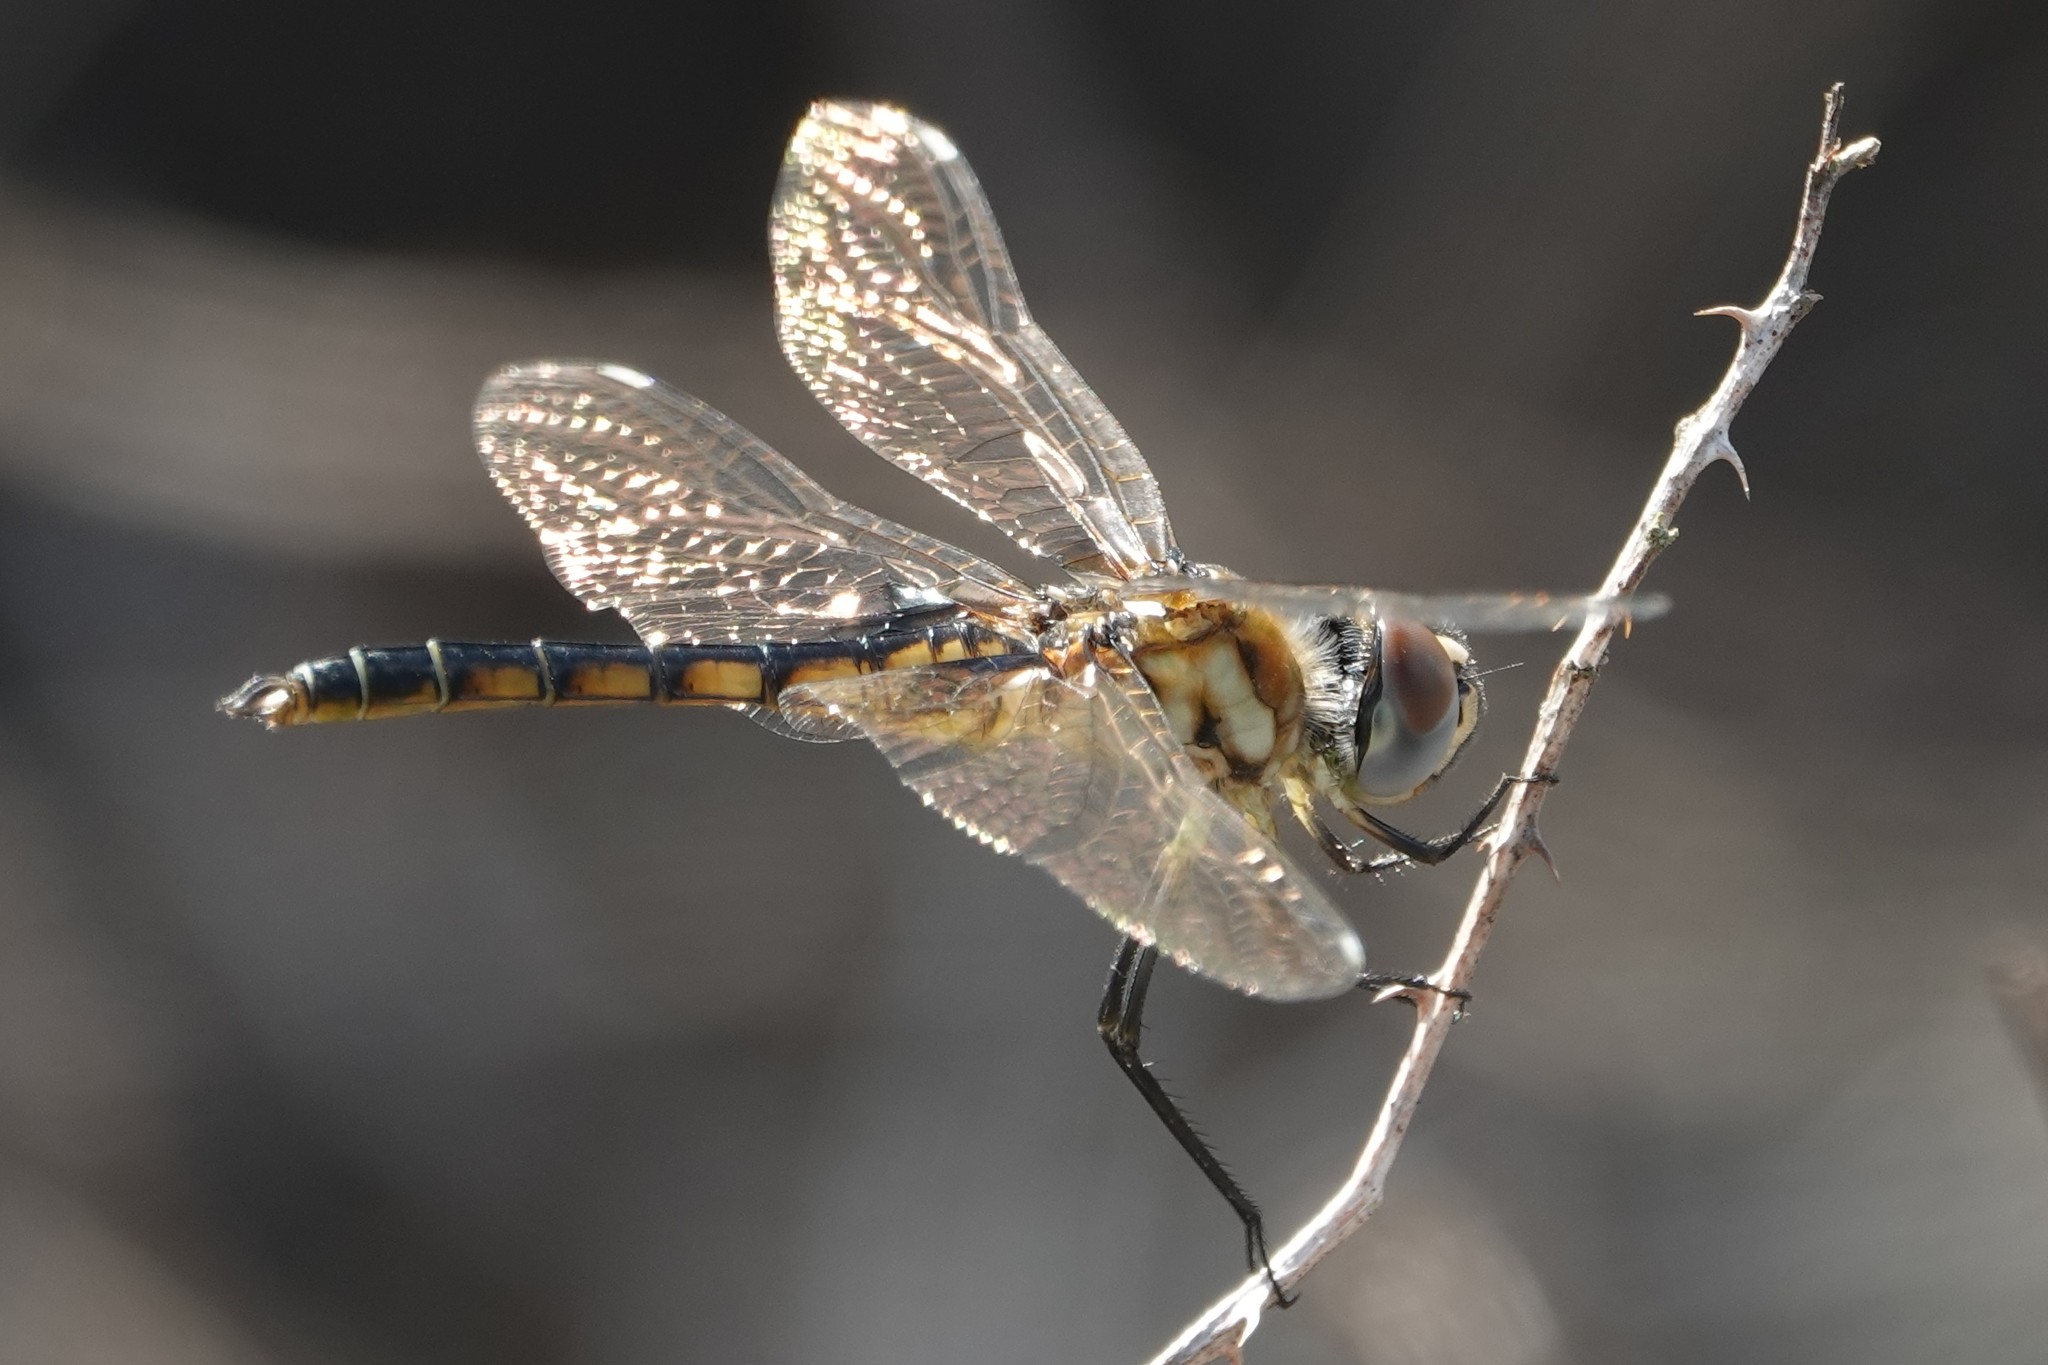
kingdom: Animalia
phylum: Arthropoda
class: Insecta
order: Odonata
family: Libellulidae
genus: Macrodiplax
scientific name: Macrodiplax balteata
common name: Marl pennant
